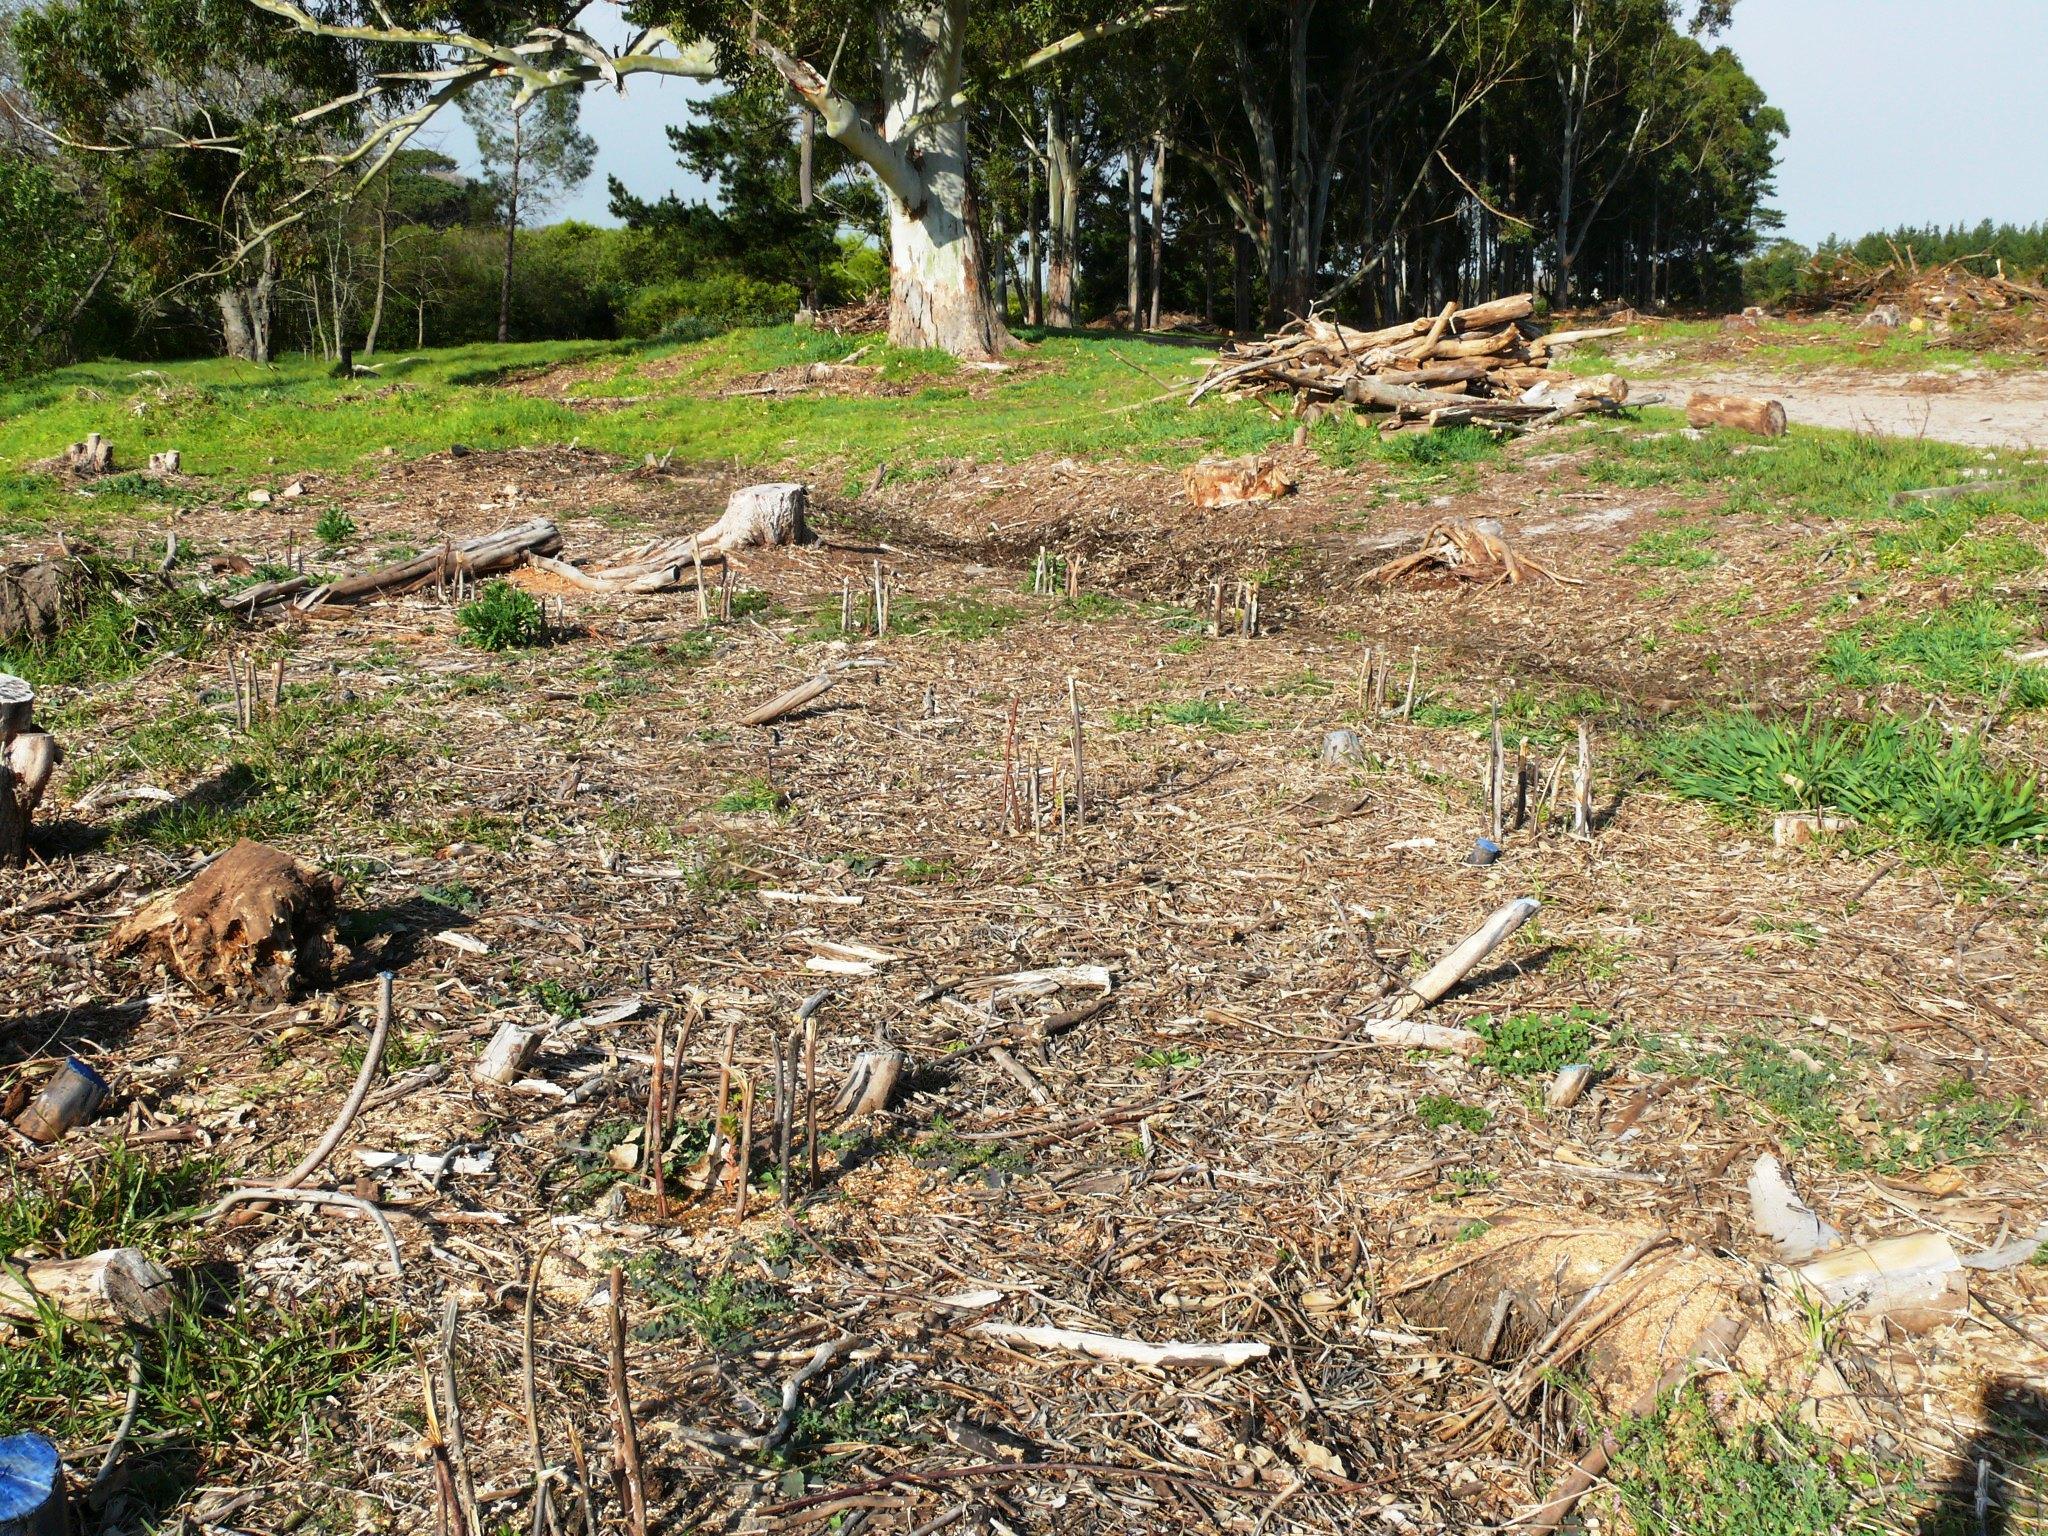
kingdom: Plantae
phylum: Tracheophyta
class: Magnoliopsida
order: Proteales
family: Proteaceae
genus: Leucadendron
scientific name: Leucadendron macowanii
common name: Acacia-leaf conebush
